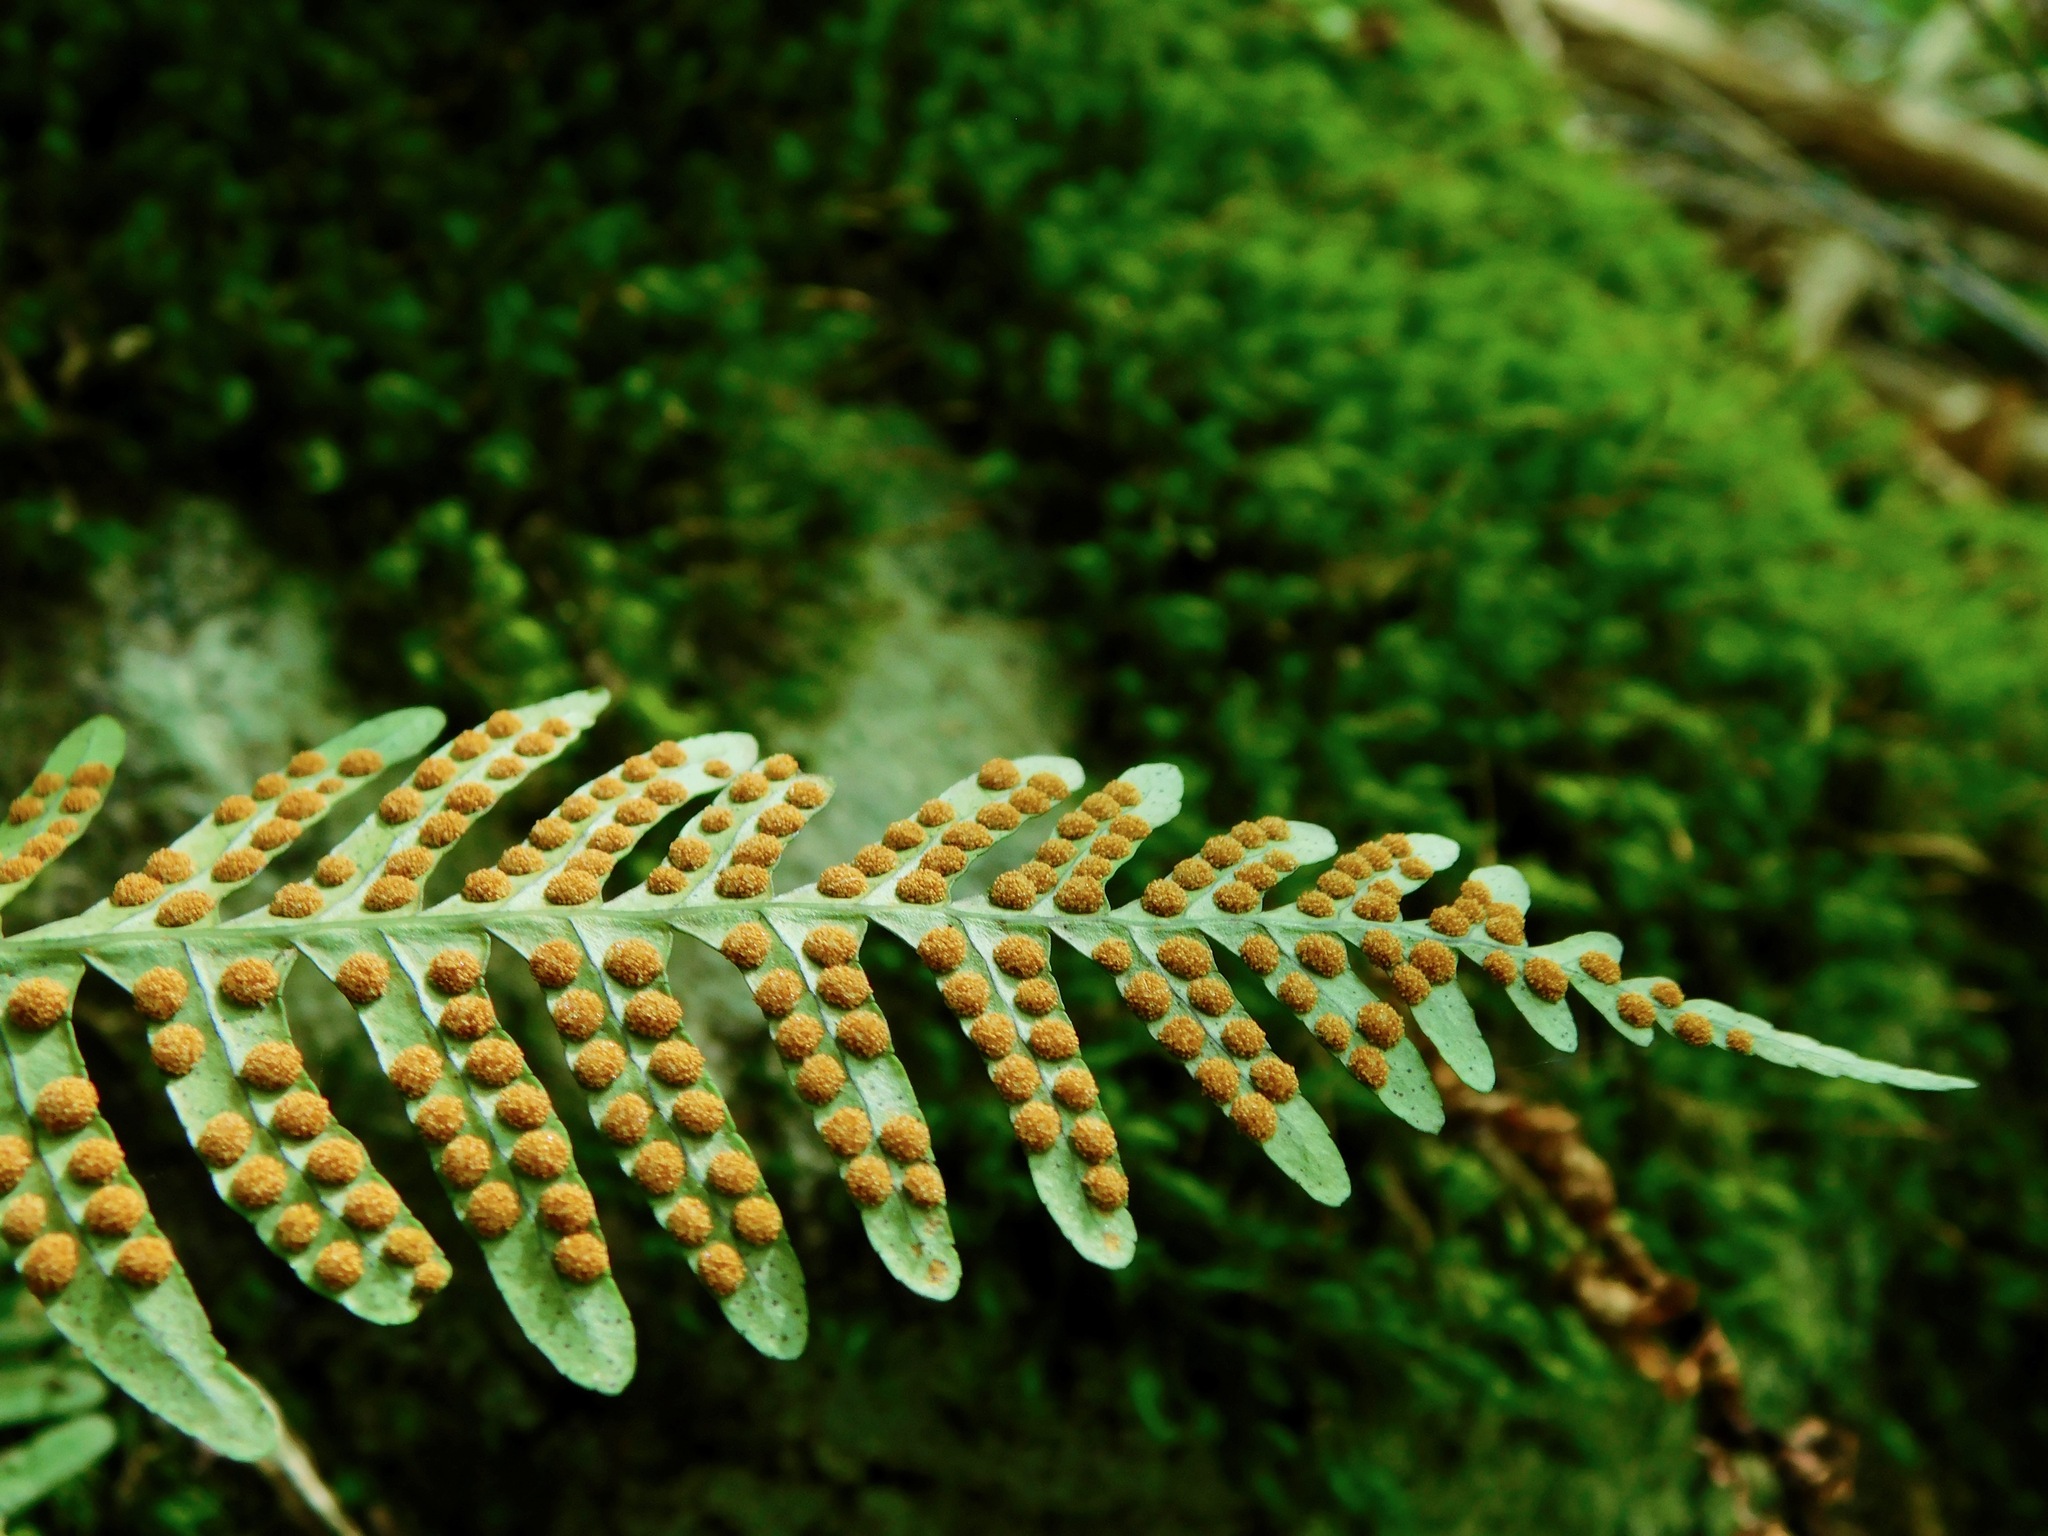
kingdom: Plantae
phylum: Tracheophyta
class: Polypodiopsida
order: Polypodiales
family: Polypodiaceae
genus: Polypodium
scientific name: Polypodium appalachianum
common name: Appalachian polypody
